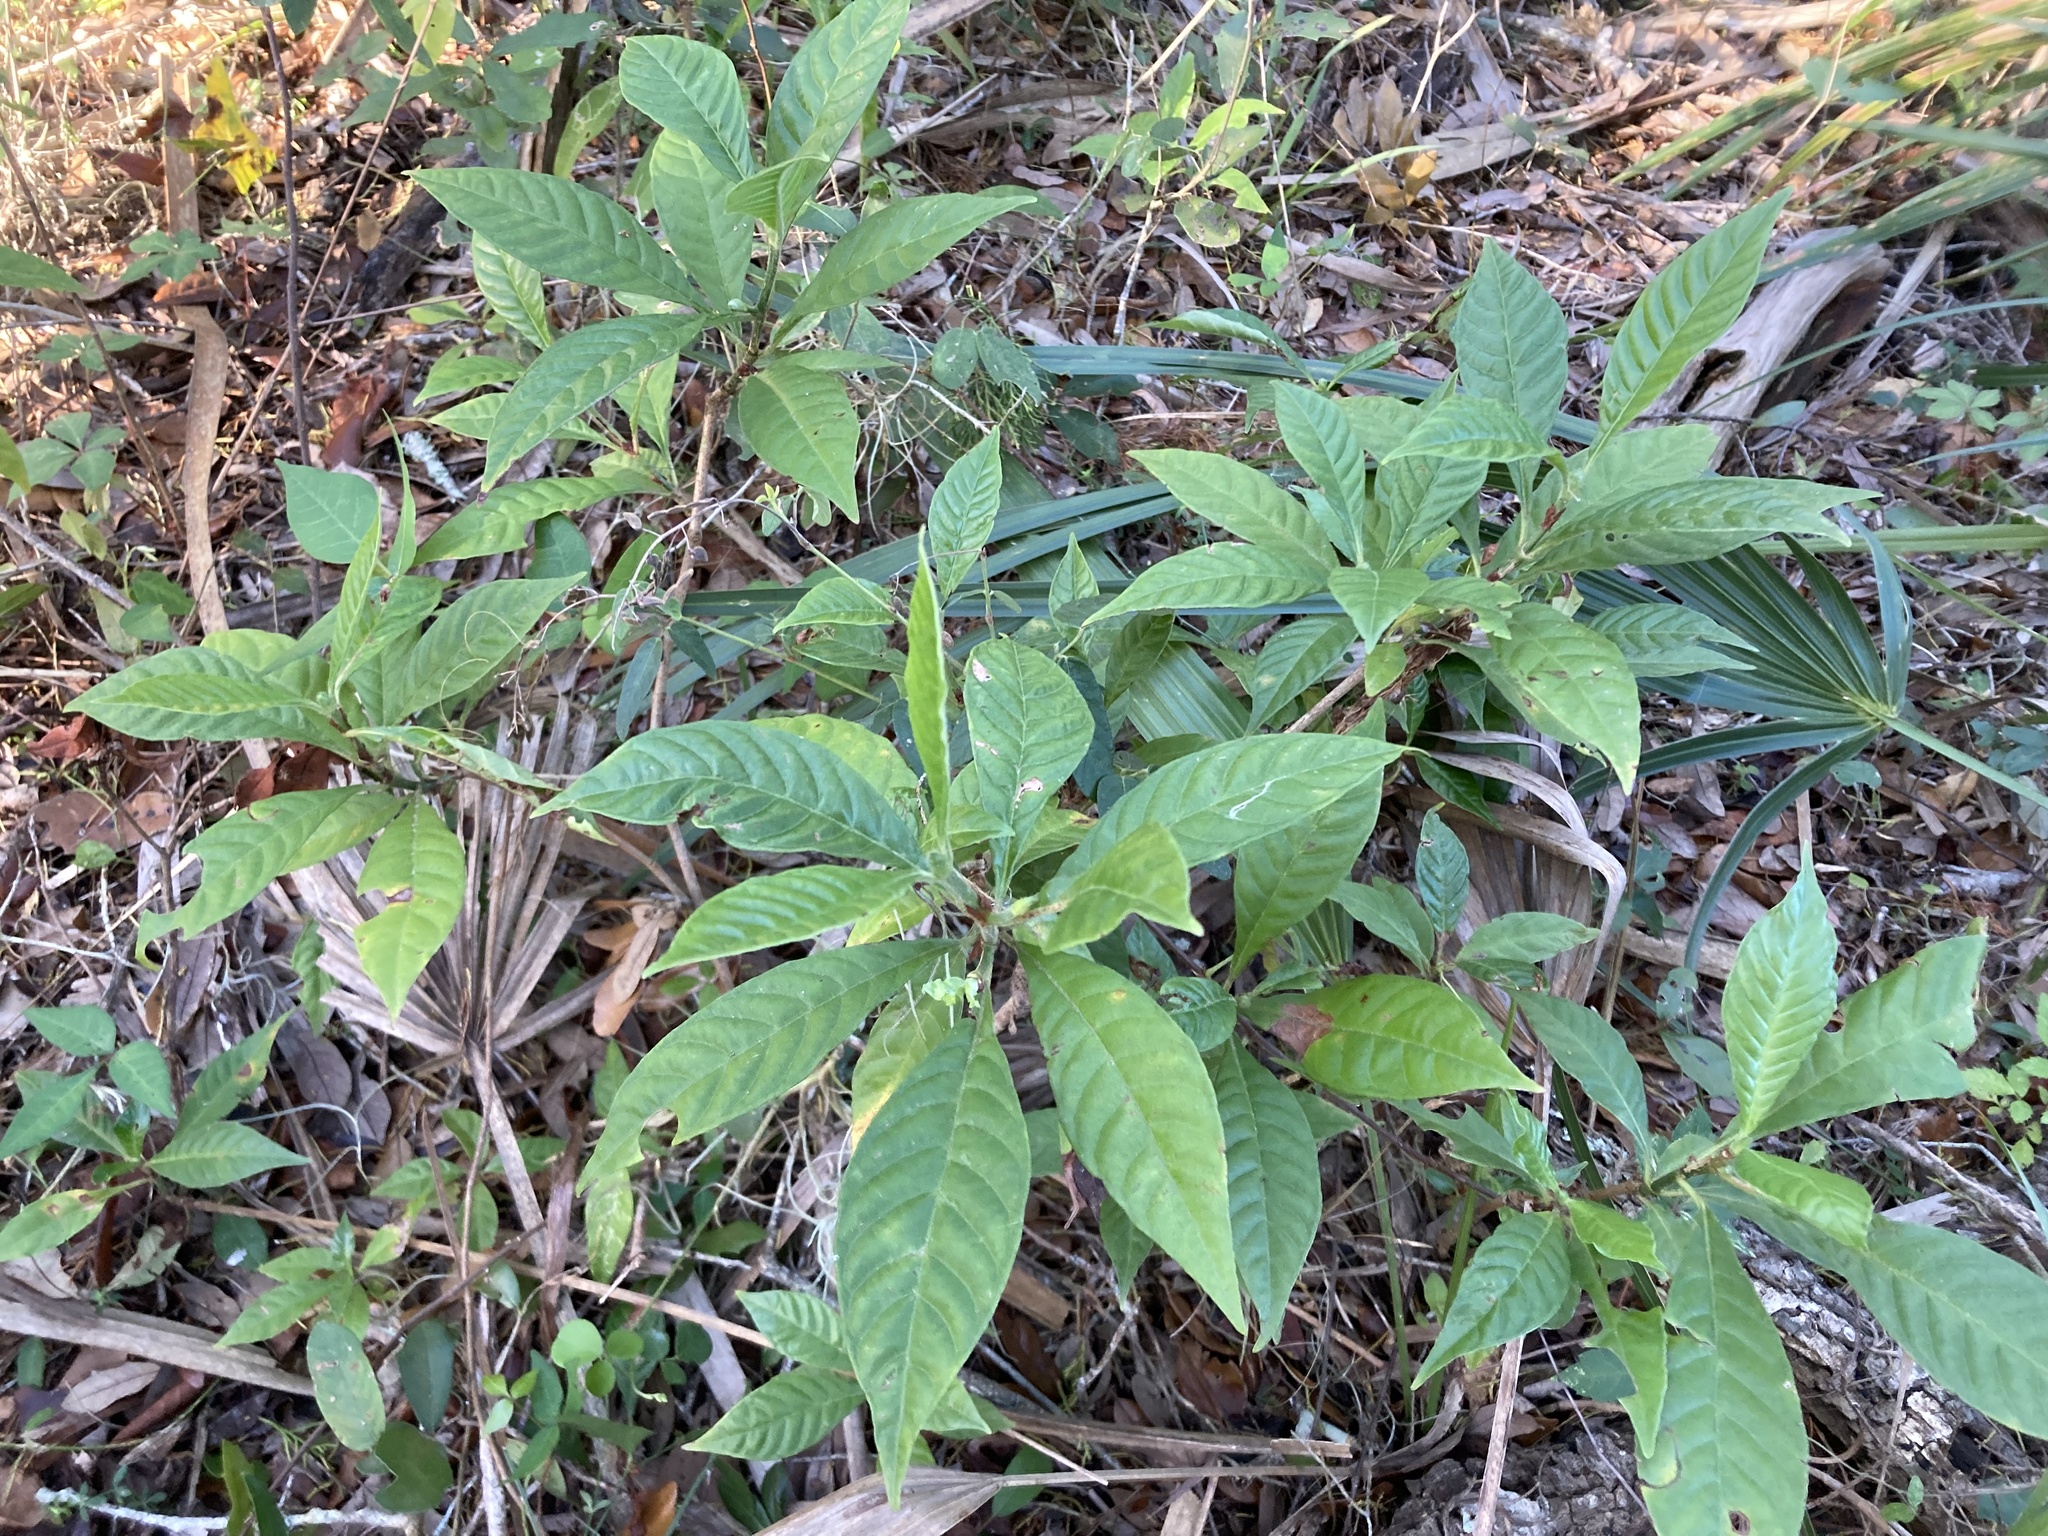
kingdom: Plantae
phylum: Tracheophyta
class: Magnoliopsida
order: Gentianales
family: Rubiaceae
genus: Psychotria
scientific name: Psychotria nervosa
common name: Bastard cankerberry
